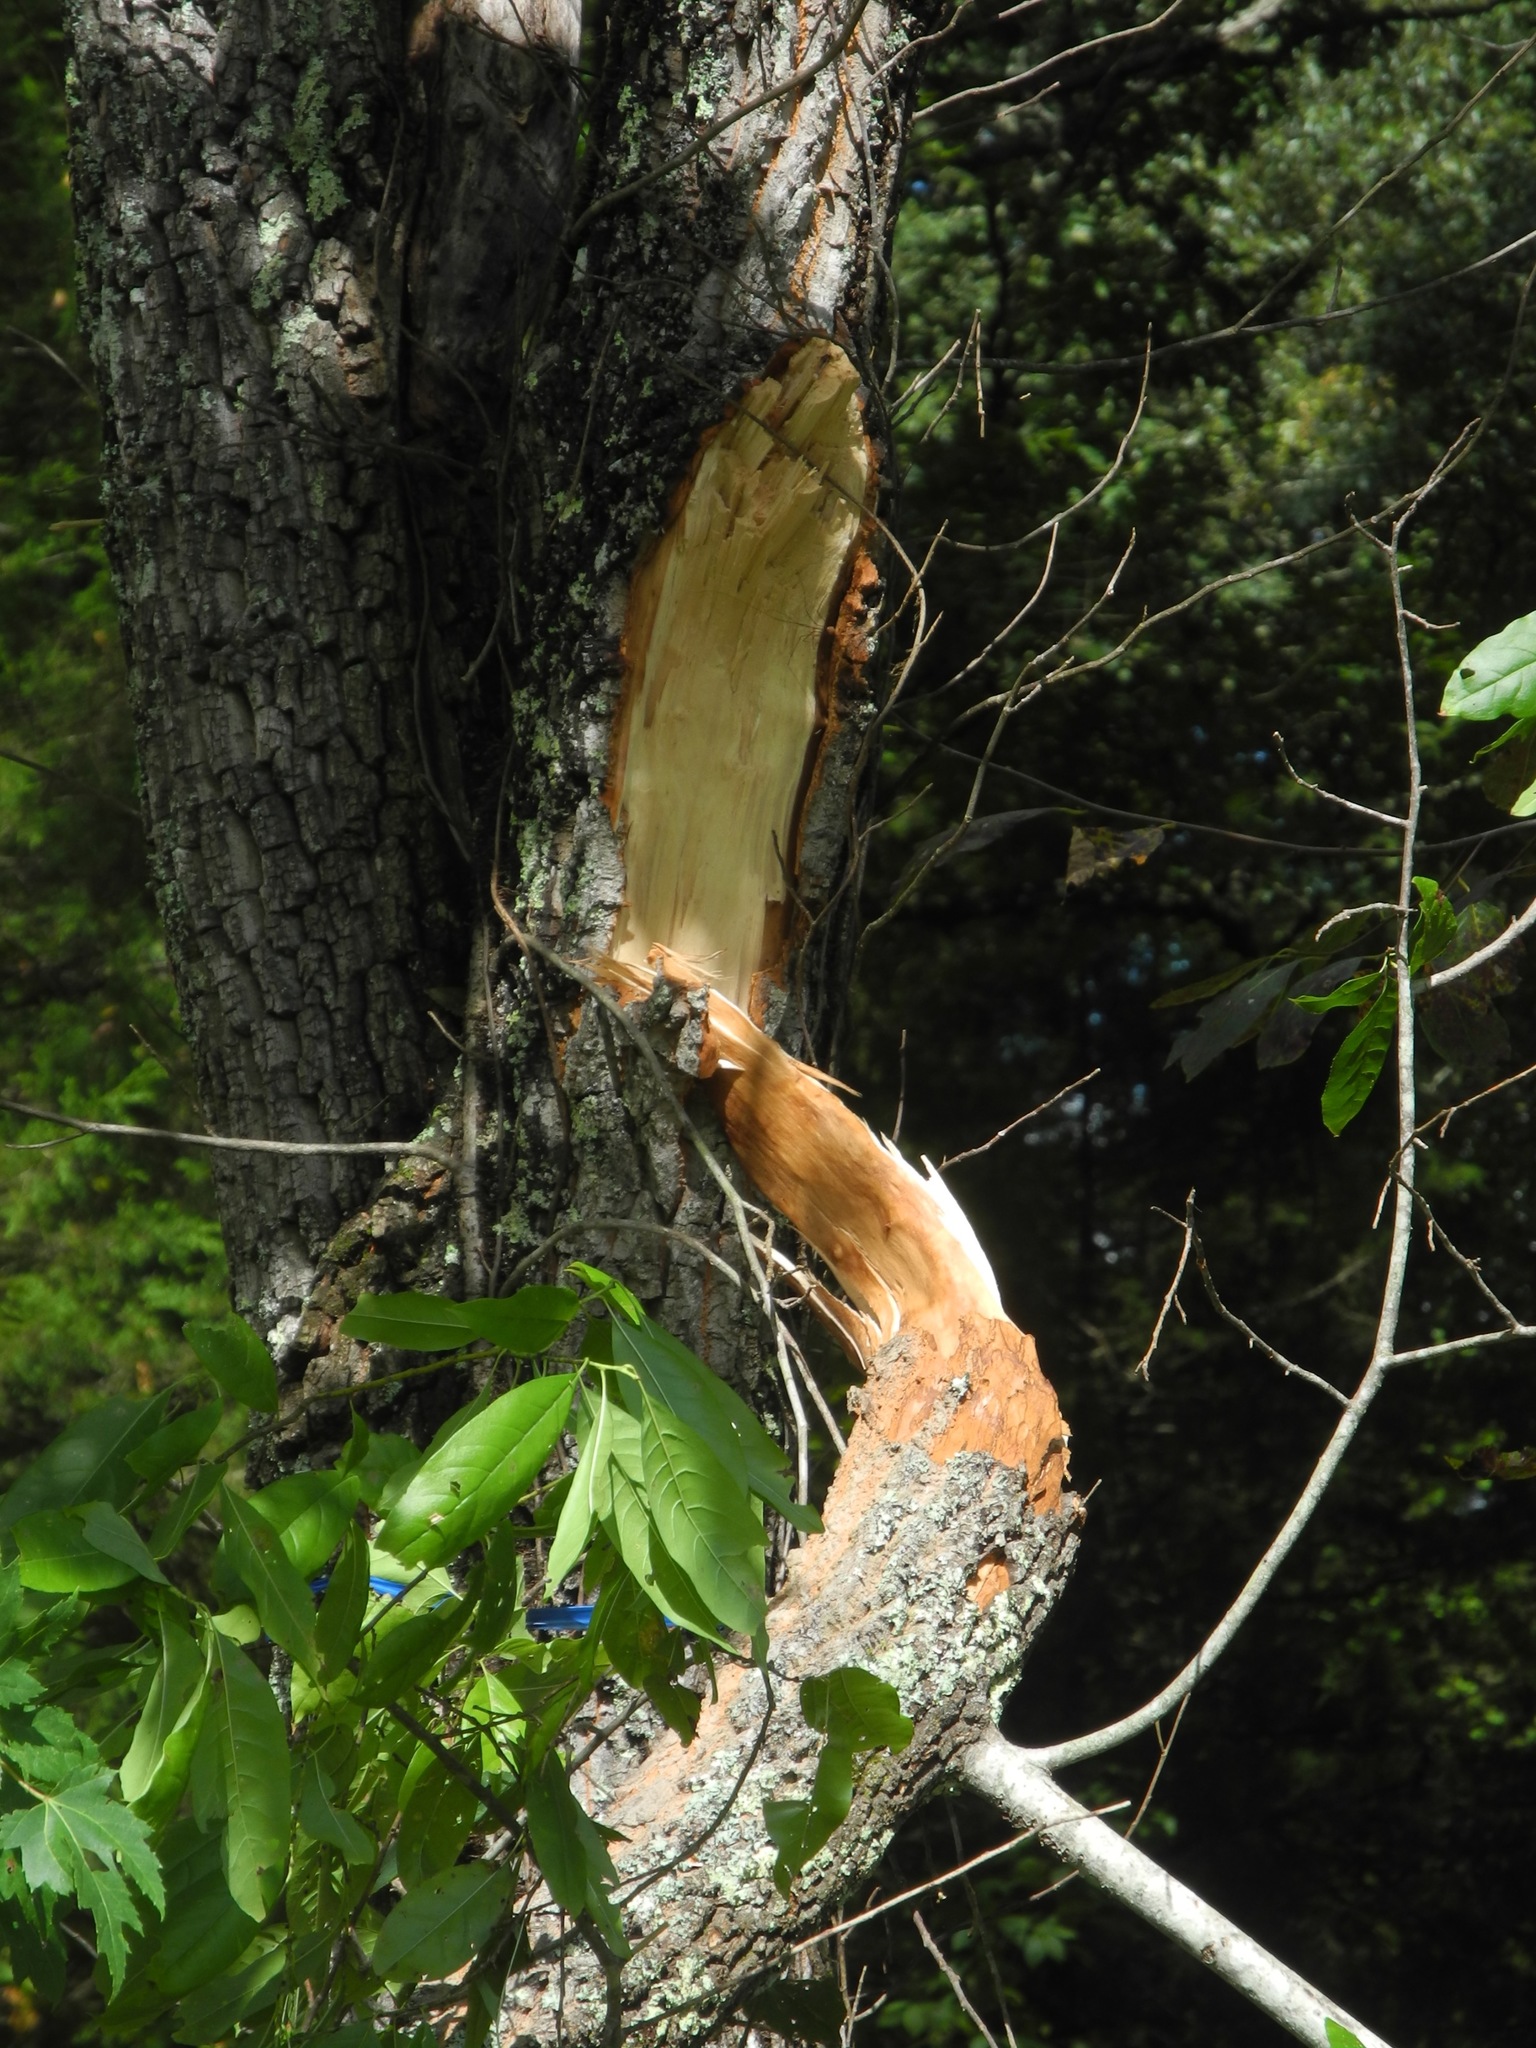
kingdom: Plantae
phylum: Tracheophyta
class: Magnoliopsida
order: Ericales
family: Ericaceae
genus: Oxydendrum
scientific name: Oxydendrum arboreum
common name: Sourwood
